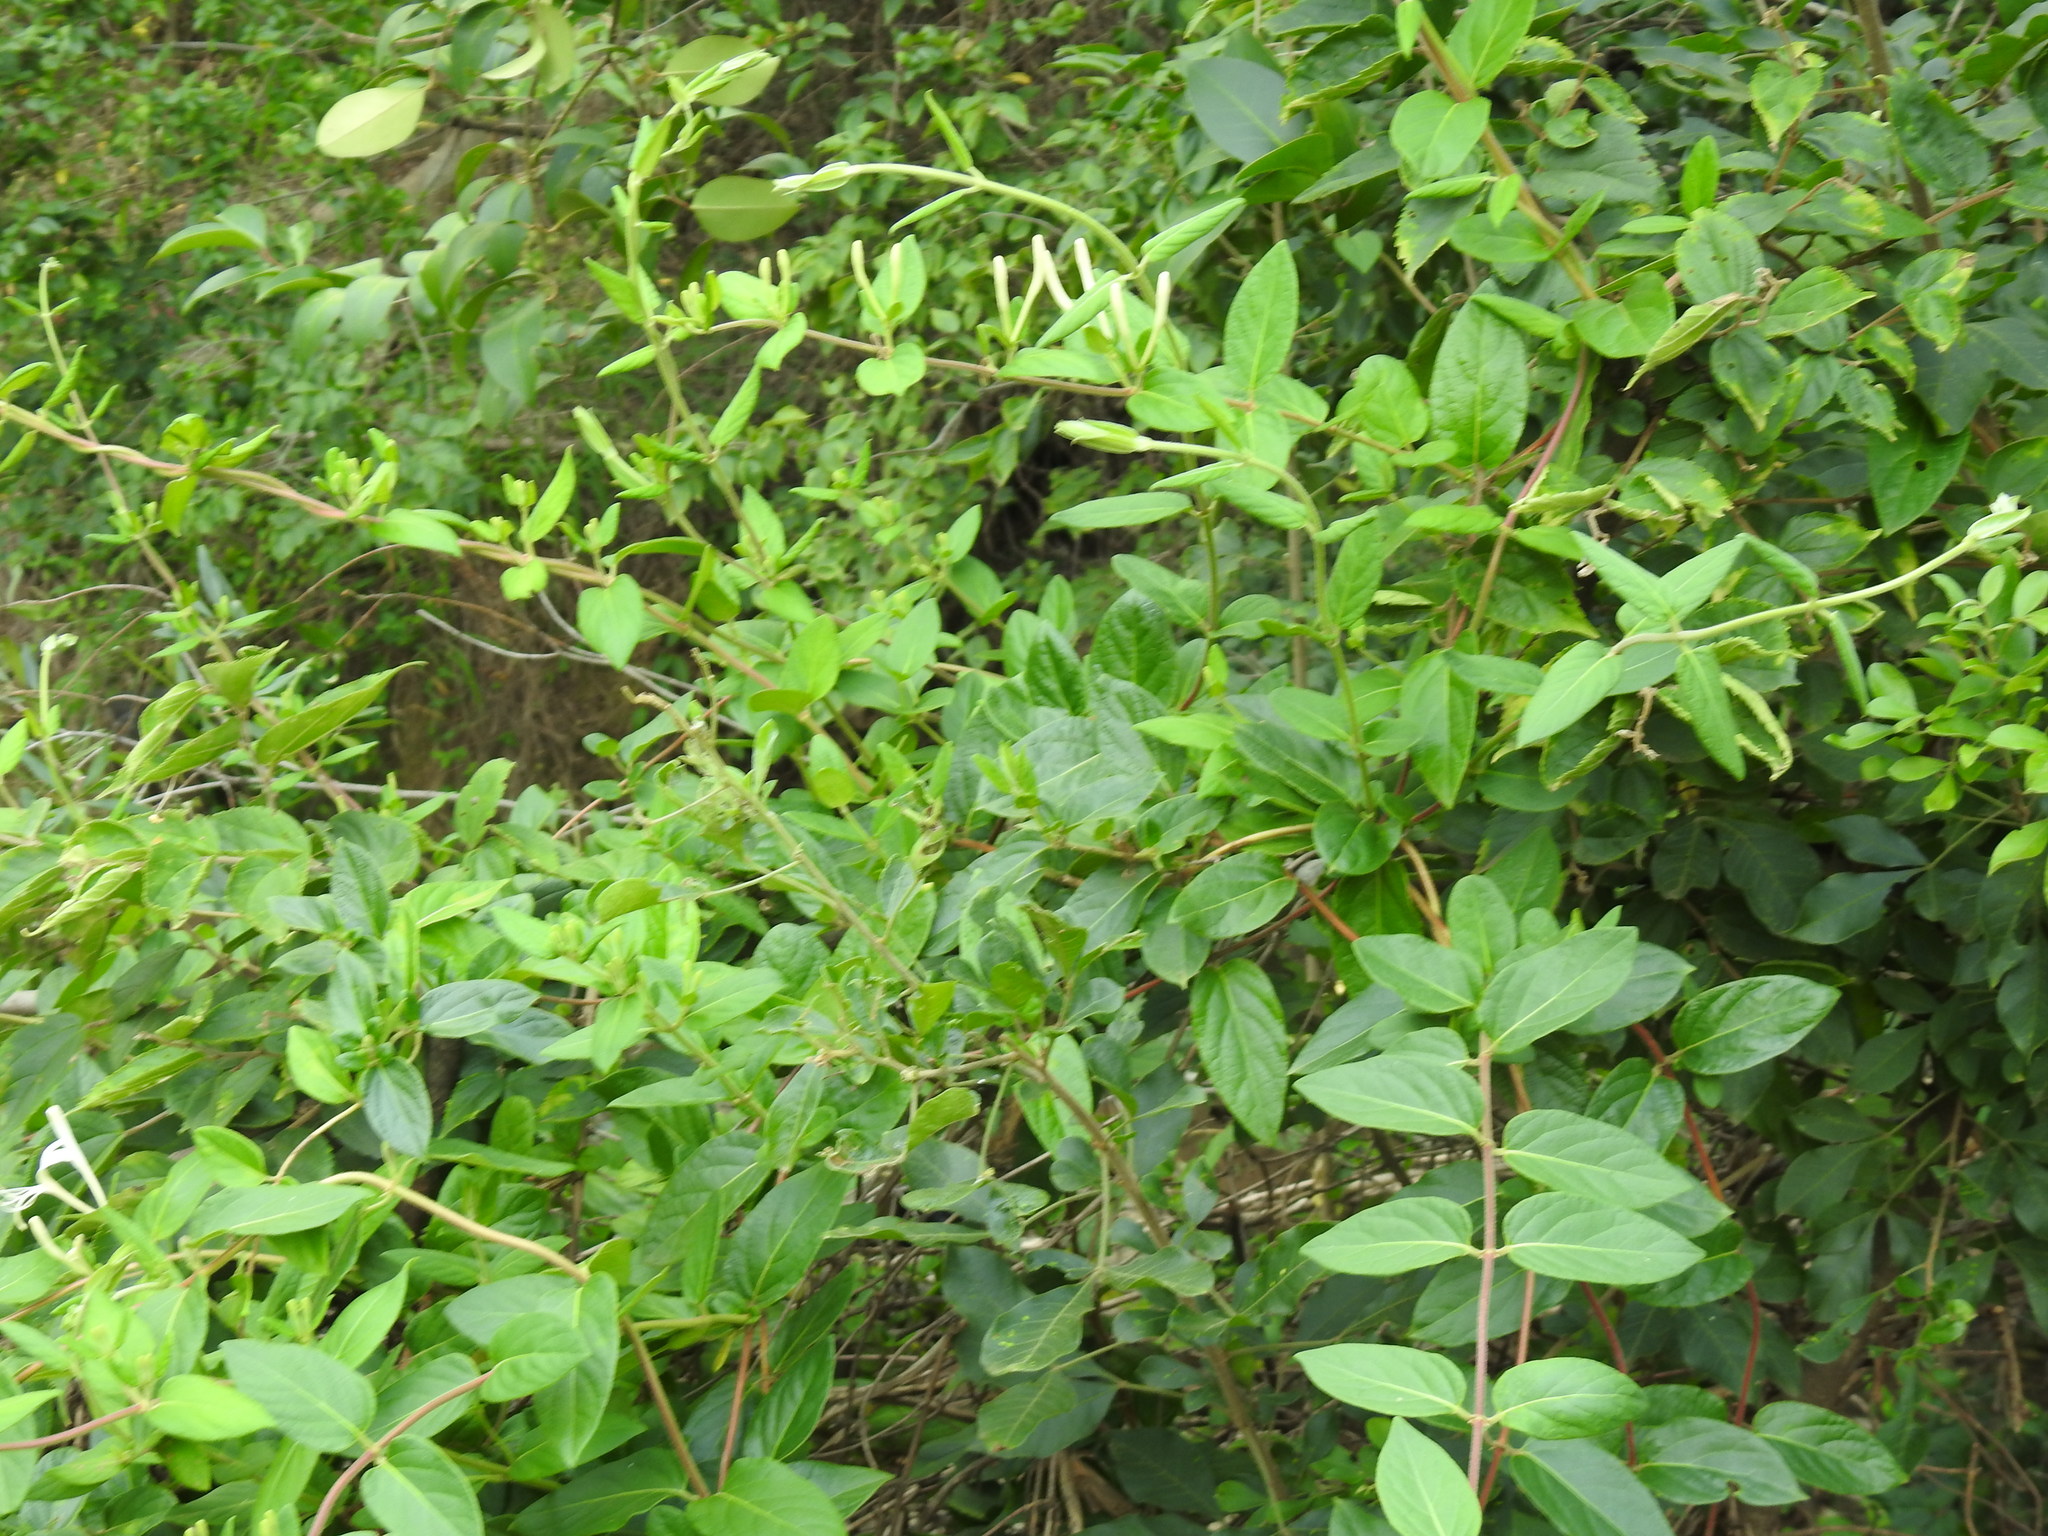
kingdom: Plantae
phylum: Tracheophyta
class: Magnoliopsida
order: Dipsacales
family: Caprifoliaceae
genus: Lonicera
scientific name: Lonicera japonica
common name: Japanese honeysuckle
